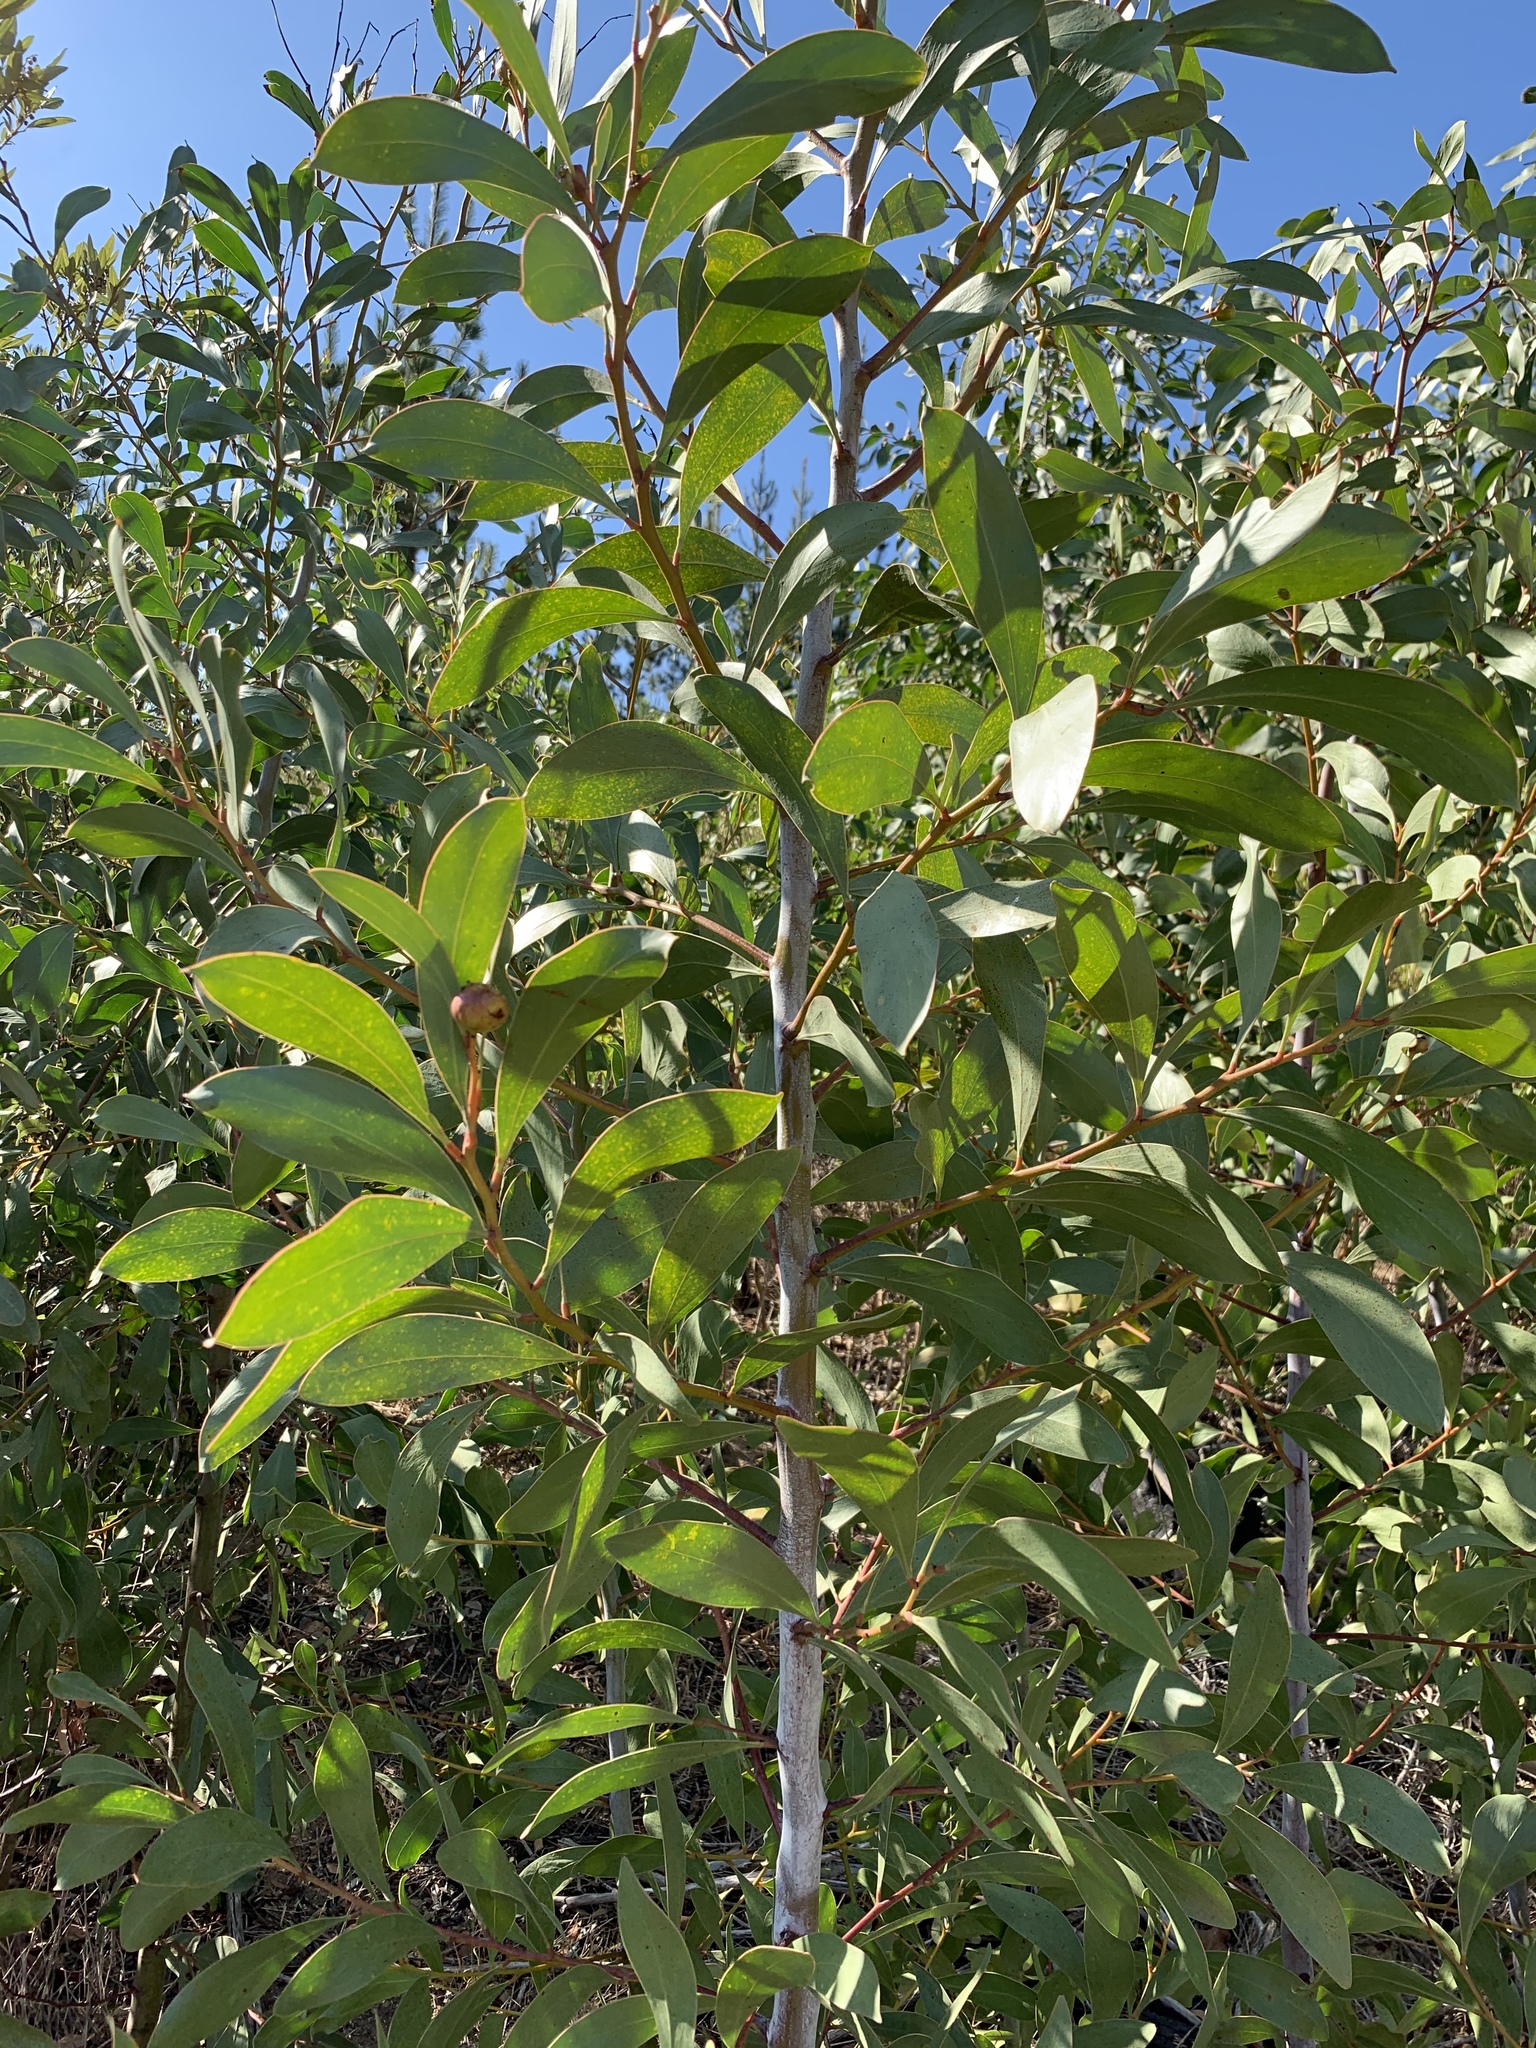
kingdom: Plantae
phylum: Tracheophyta
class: Magnoliopsida
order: Fabales
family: Fabaceae
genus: Acacia
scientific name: Acacia pycnantha
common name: Golden wattle
